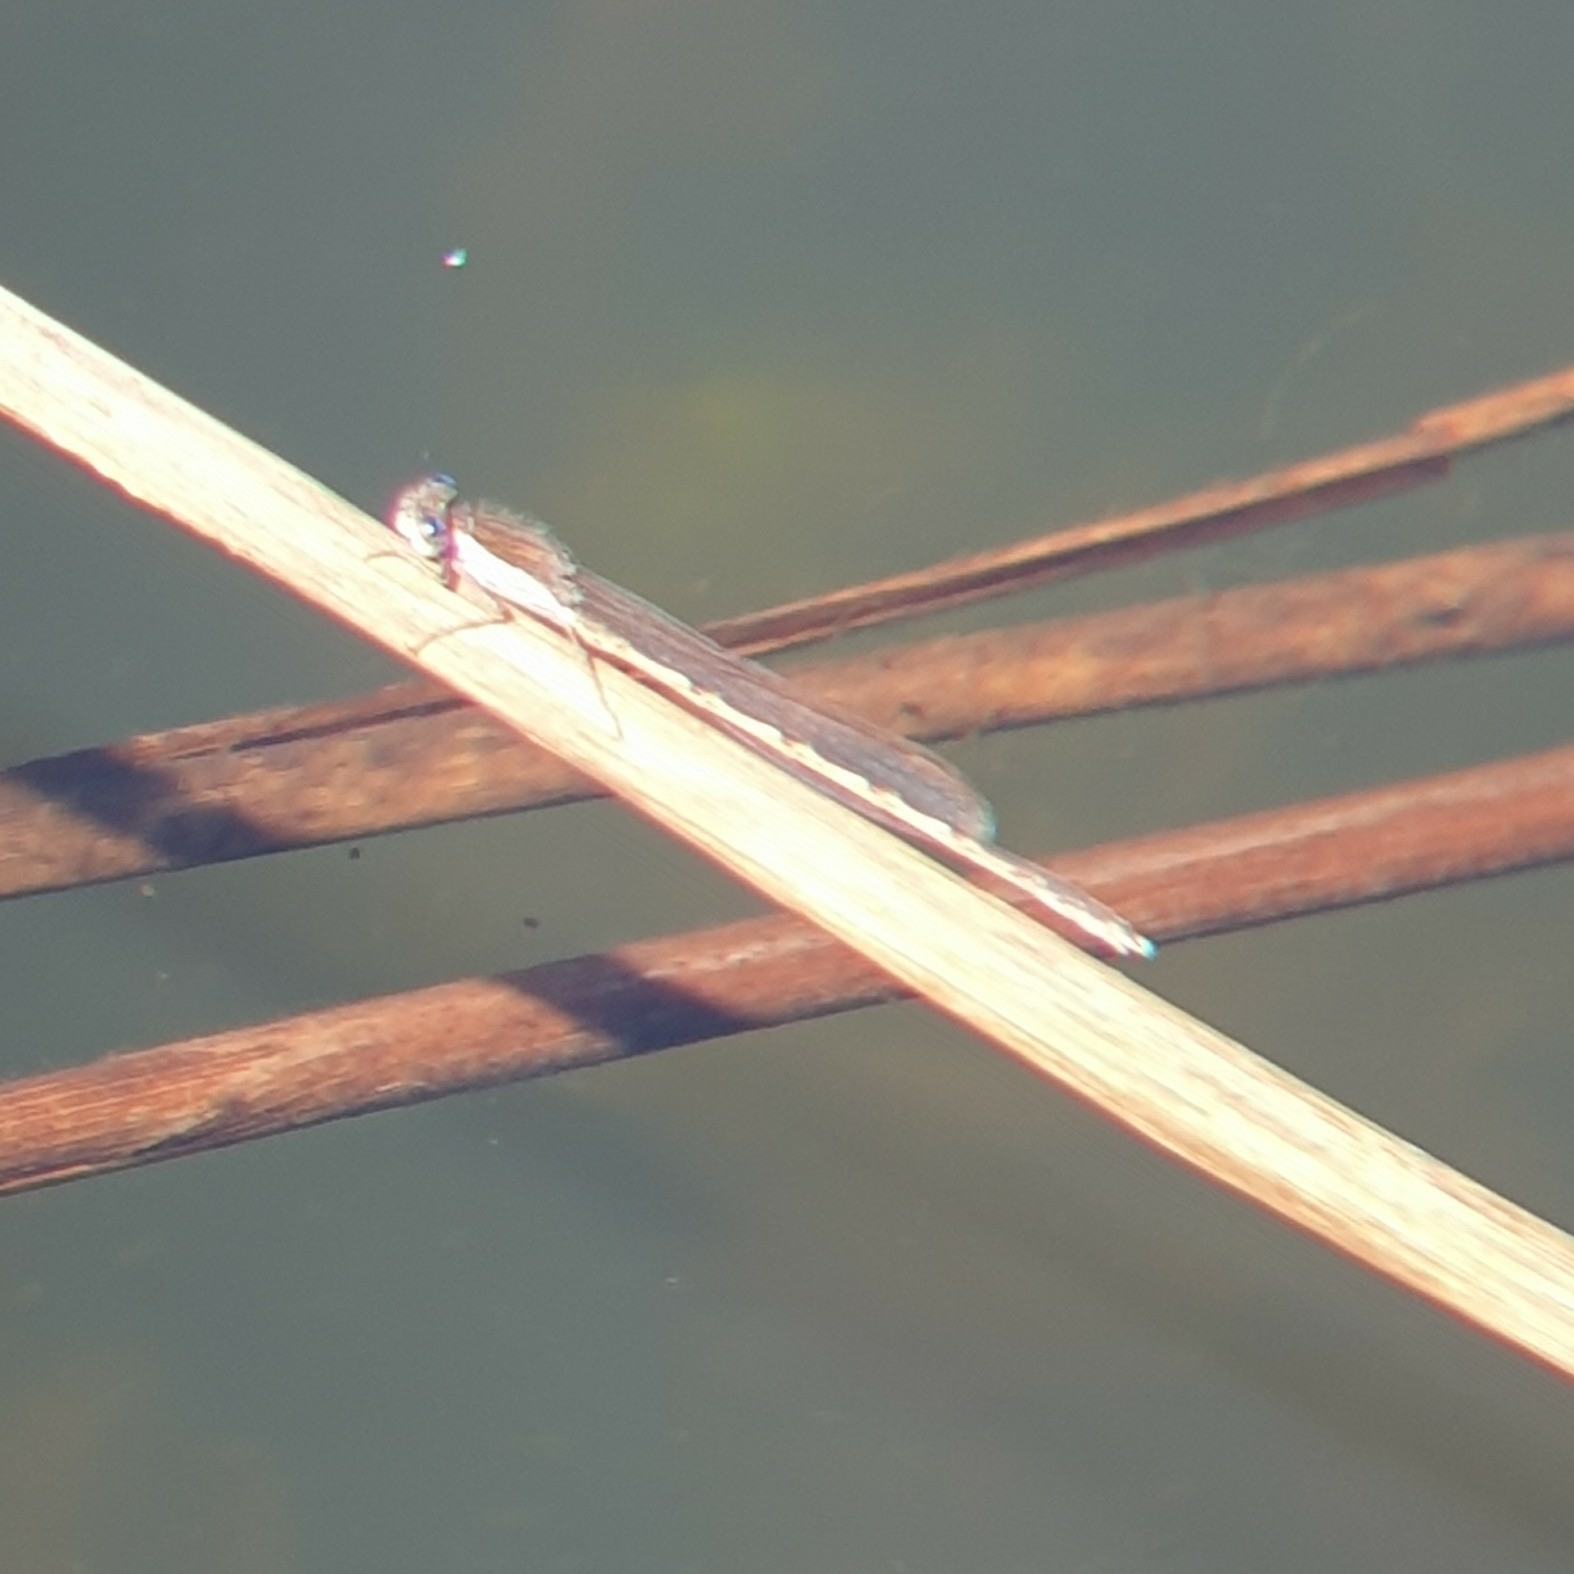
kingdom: Animalia
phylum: Arthropoda
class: Insecta
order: Odonata
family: Lestidae
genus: Sympecma
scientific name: Sympecma fusca
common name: Common winter damsel
